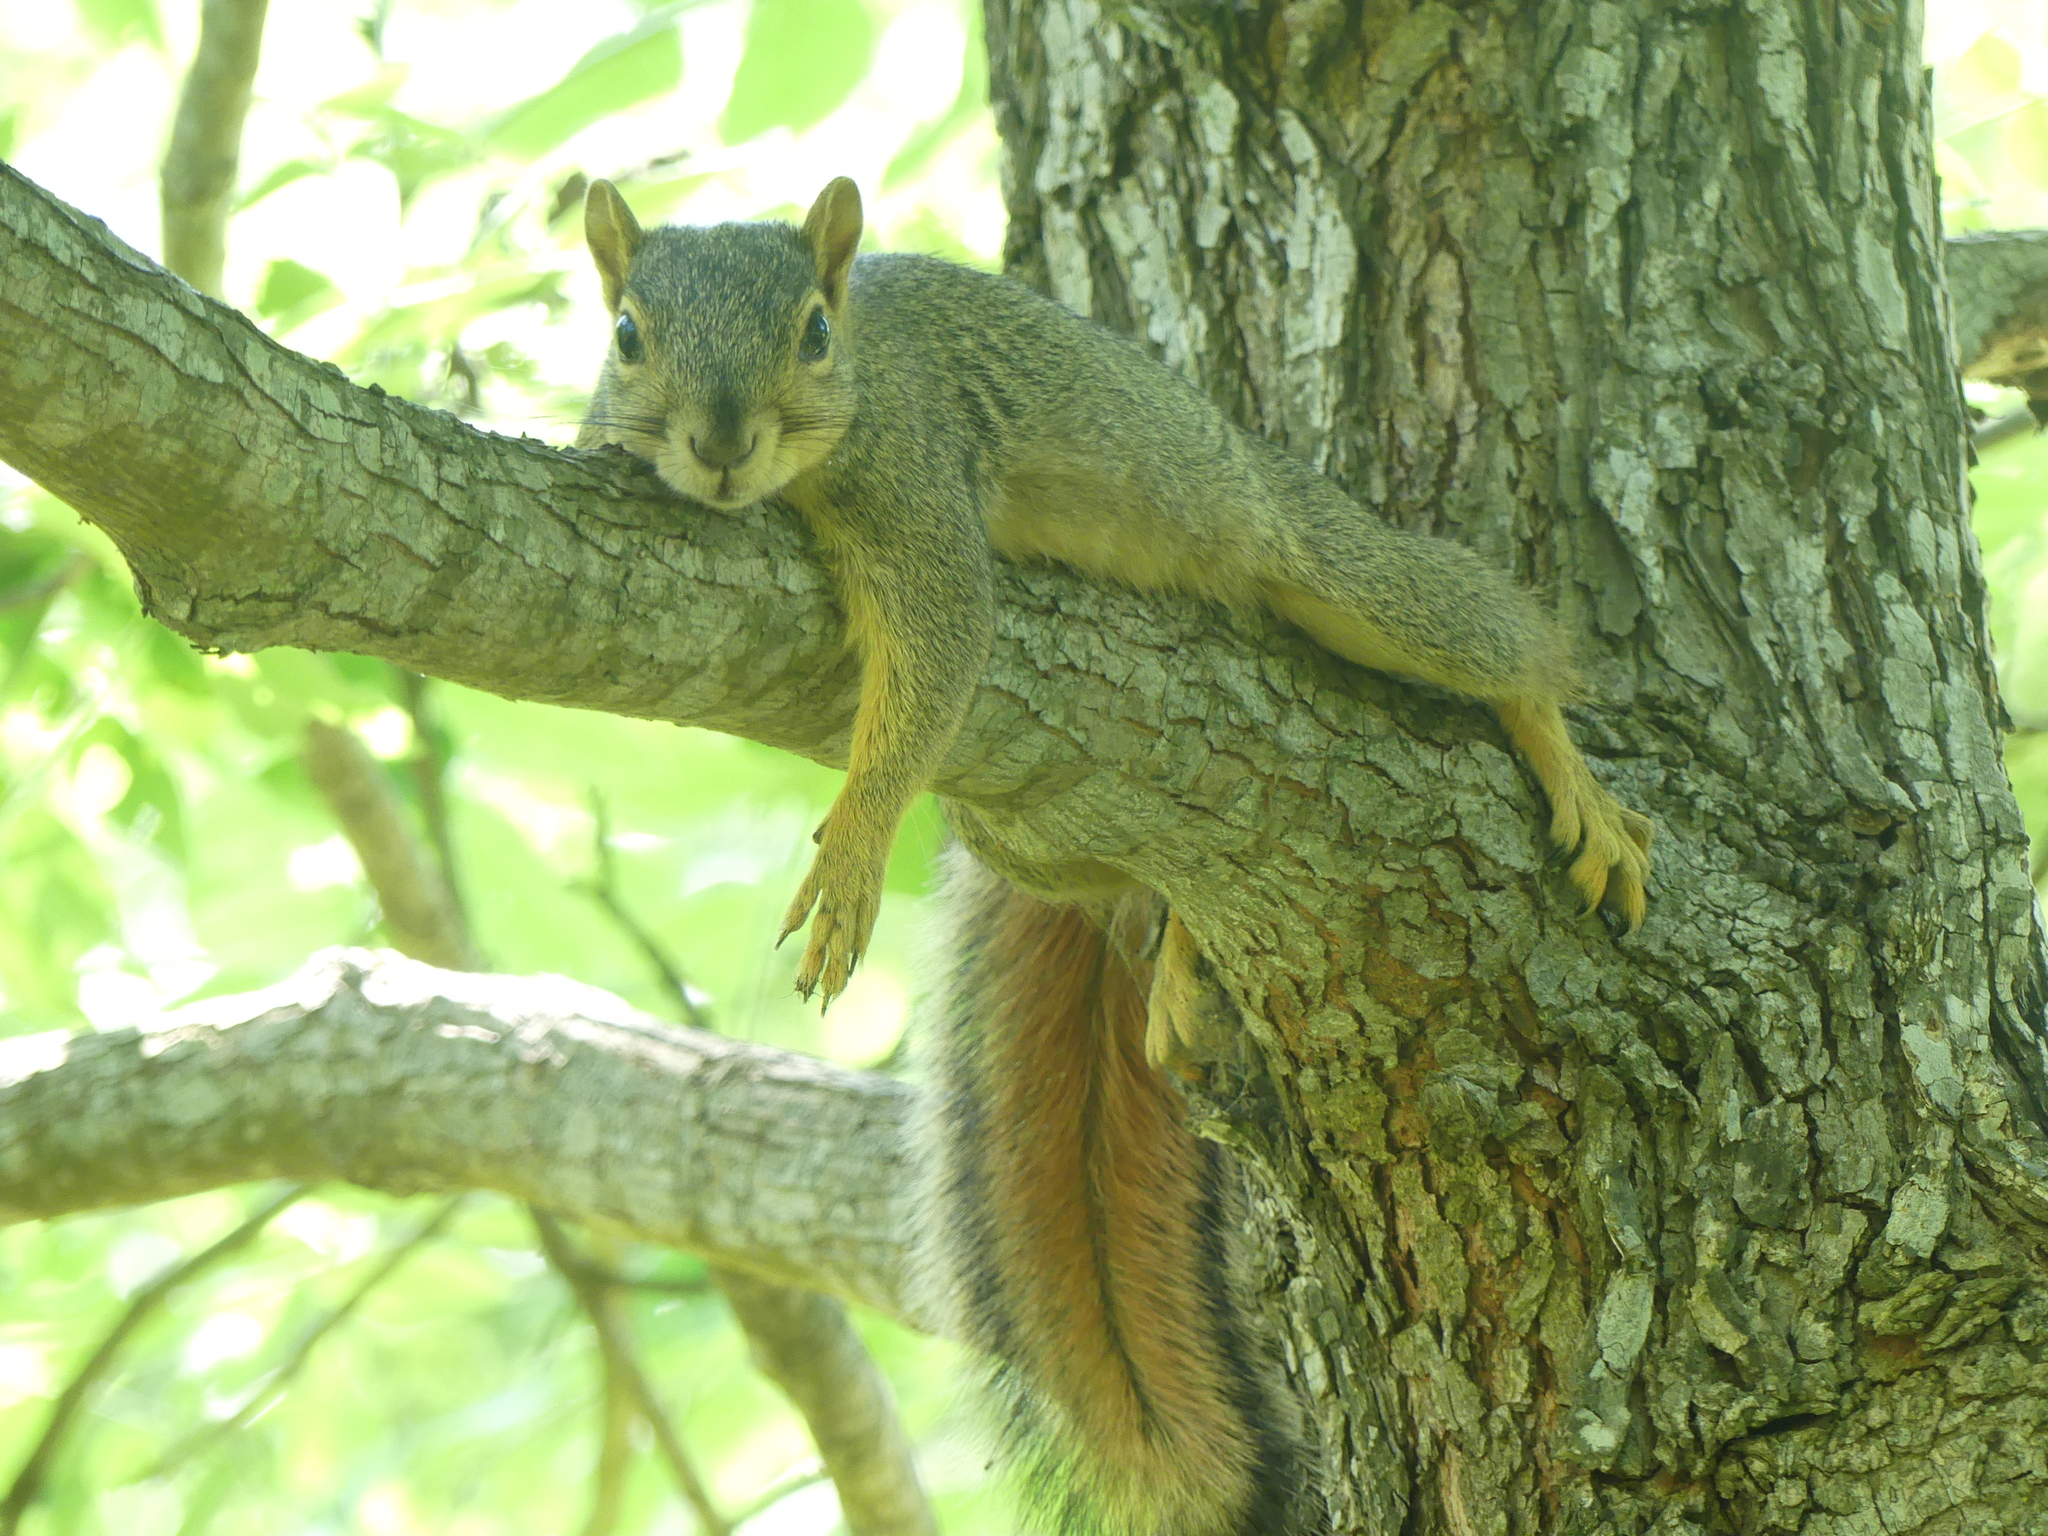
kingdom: Animalia
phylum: Chordata
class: Mammalia
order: Rodentia
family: Sciuridae
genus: Sciurus
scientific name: Sciurus niger
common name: Fox squirrel
